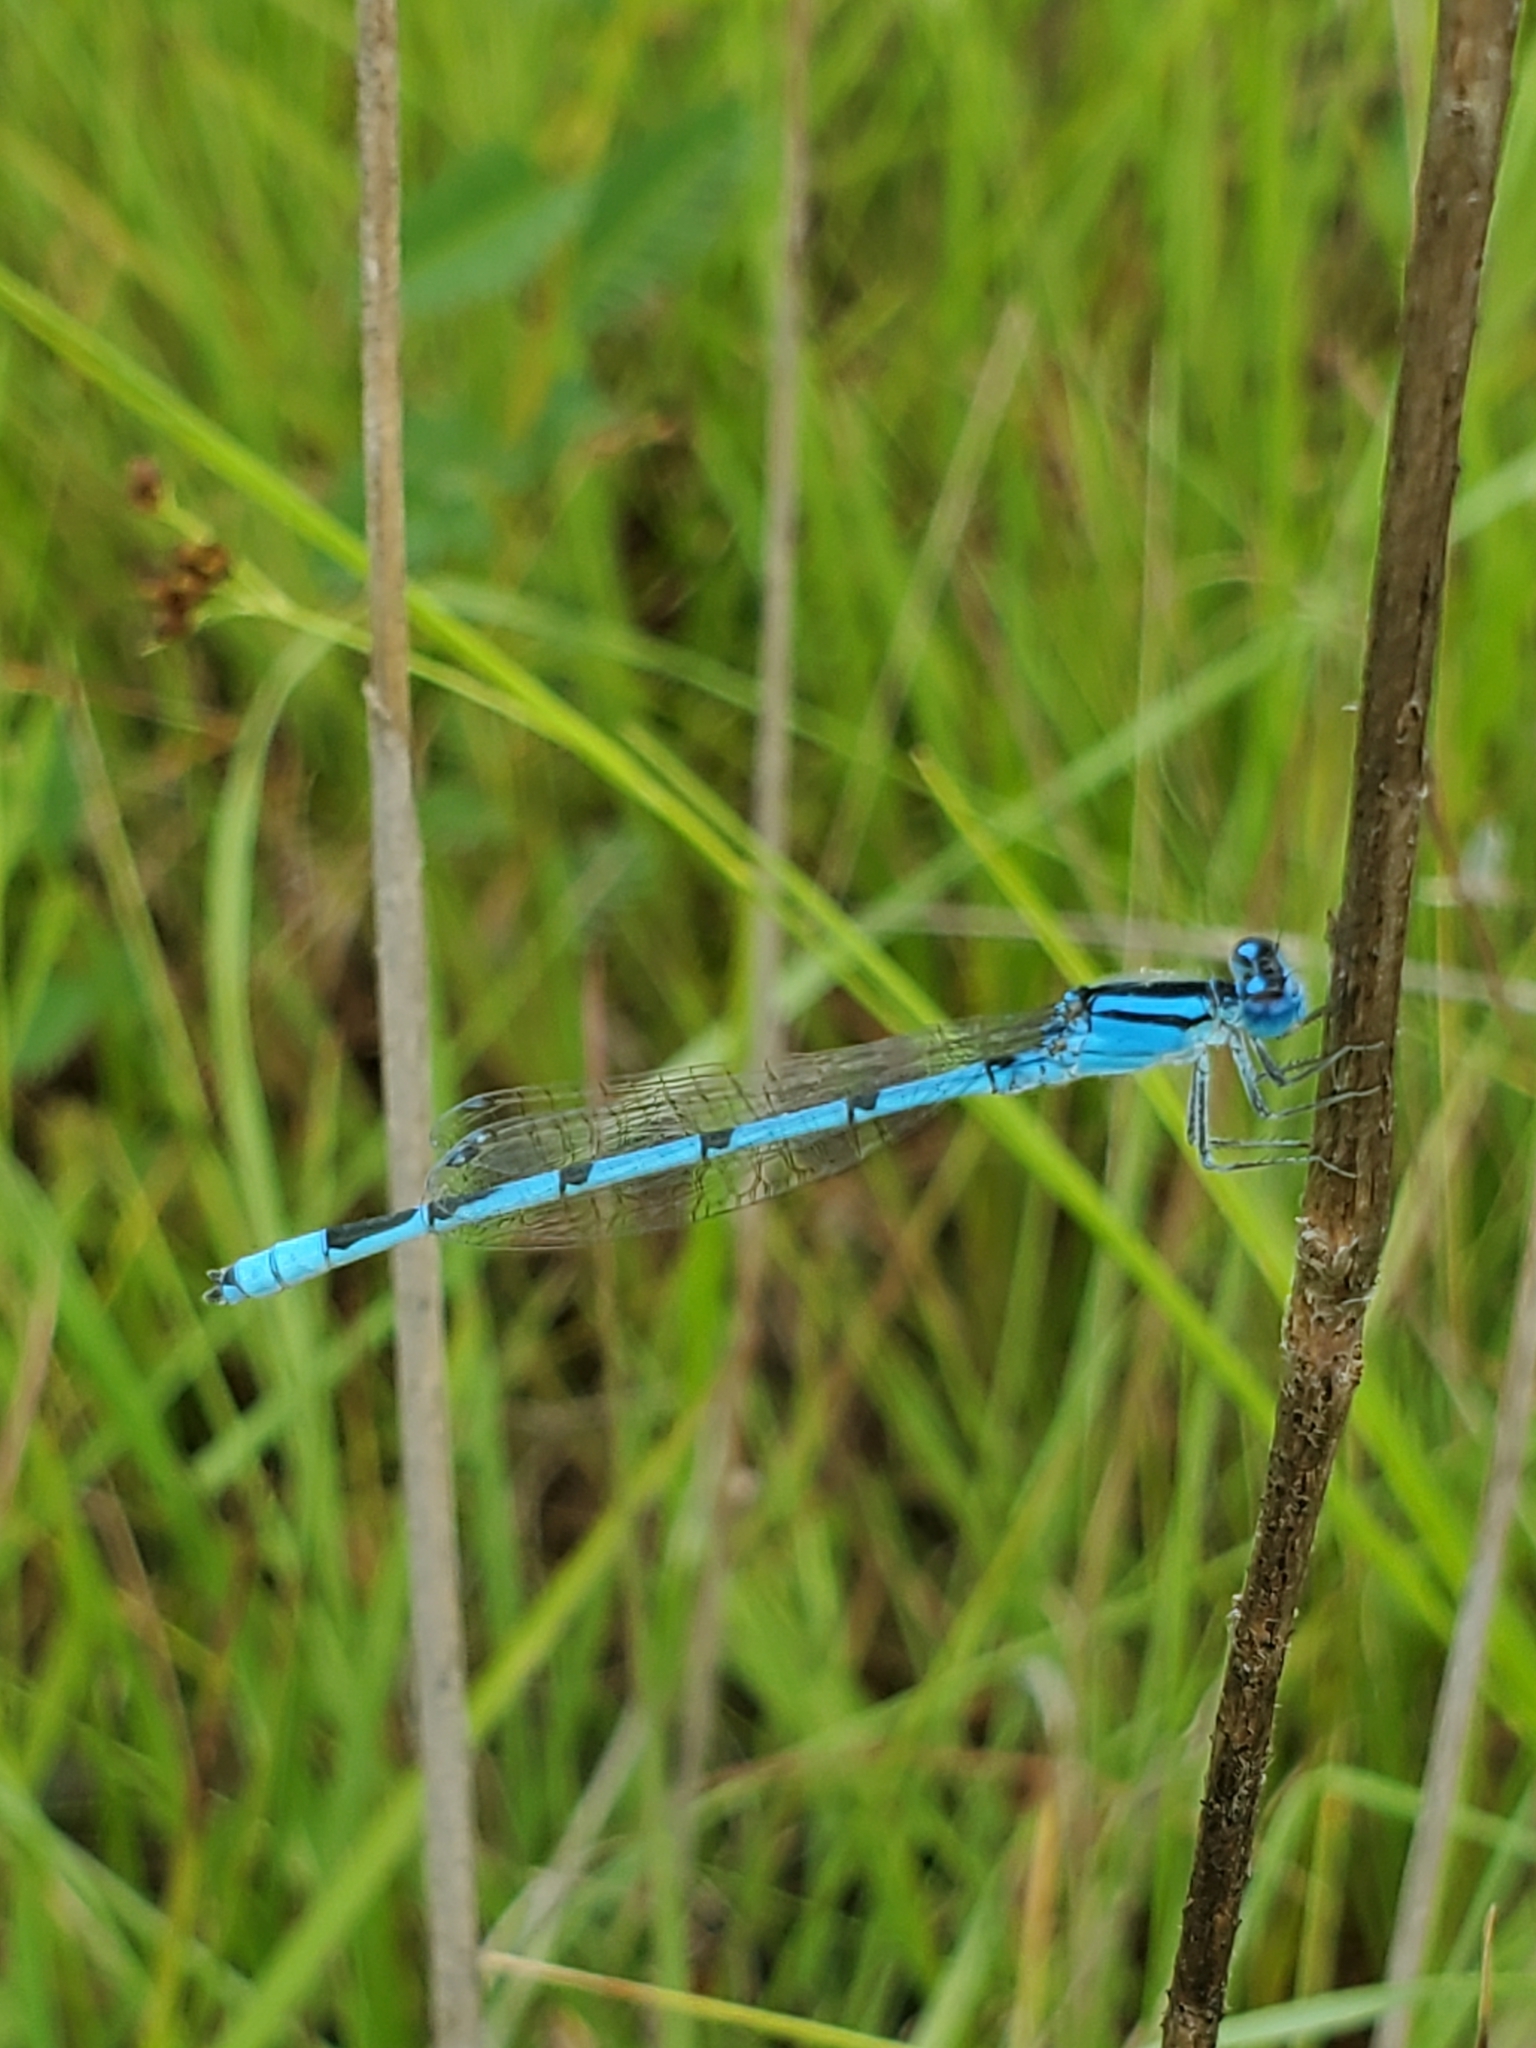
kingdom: Animalia
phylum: Arthropoda
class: Insecta
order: Odonata
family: Coenagrionidae
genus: Enallagma
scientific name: Enallagma civile
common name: Damselfly
